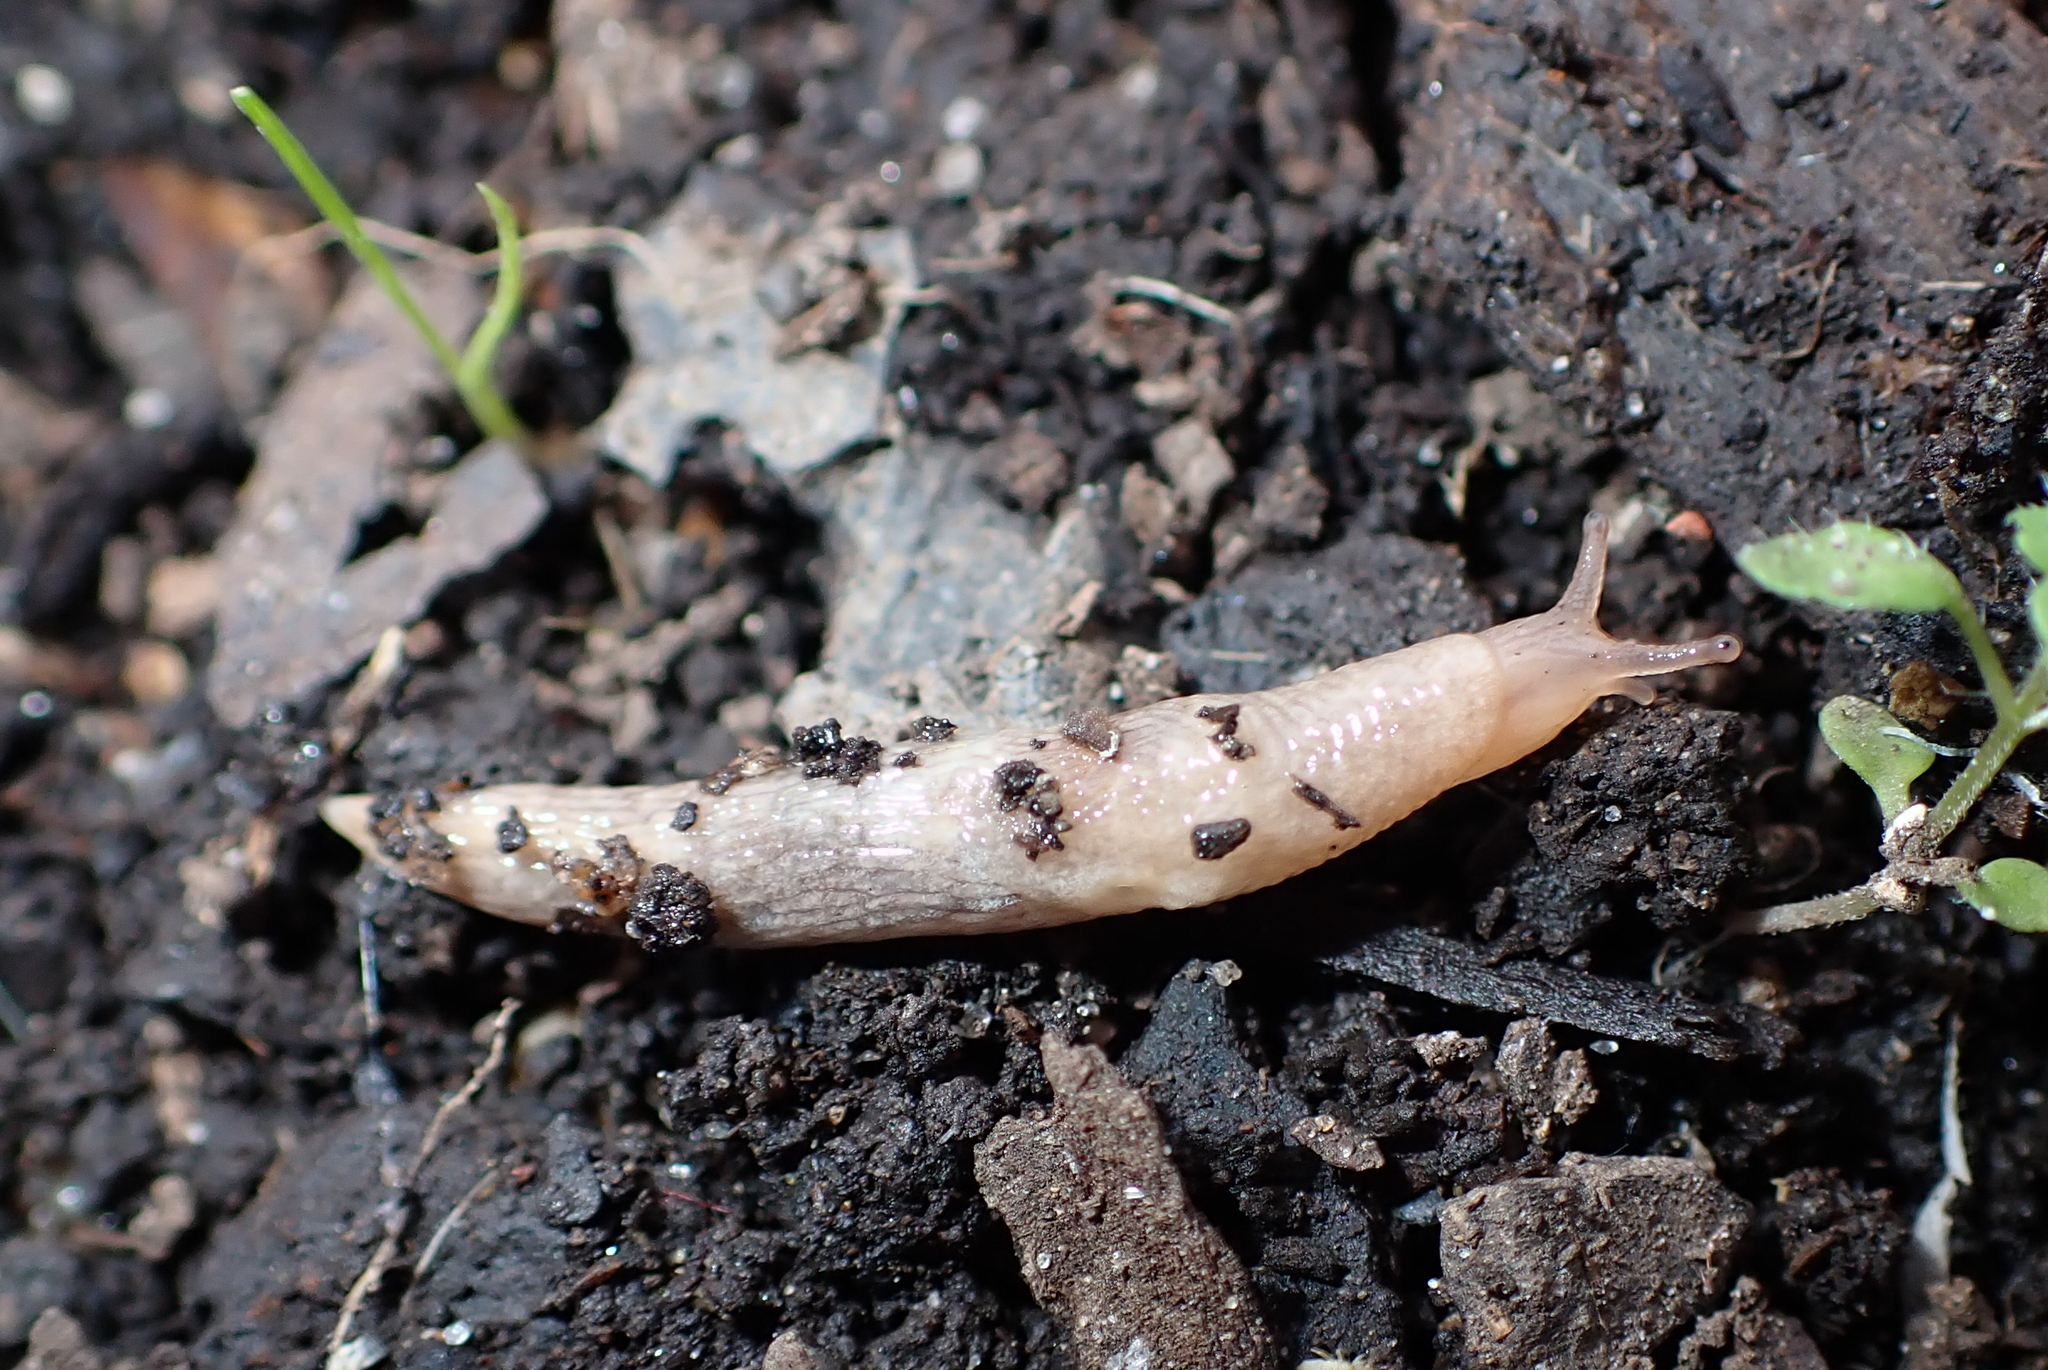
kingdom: Animalia
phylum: Mollusca
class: Gastropoda
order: Stylommatophora
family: Agriolimacidae
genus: Deroceras
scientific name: Deroceras reticulatum
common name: Gray field slug
